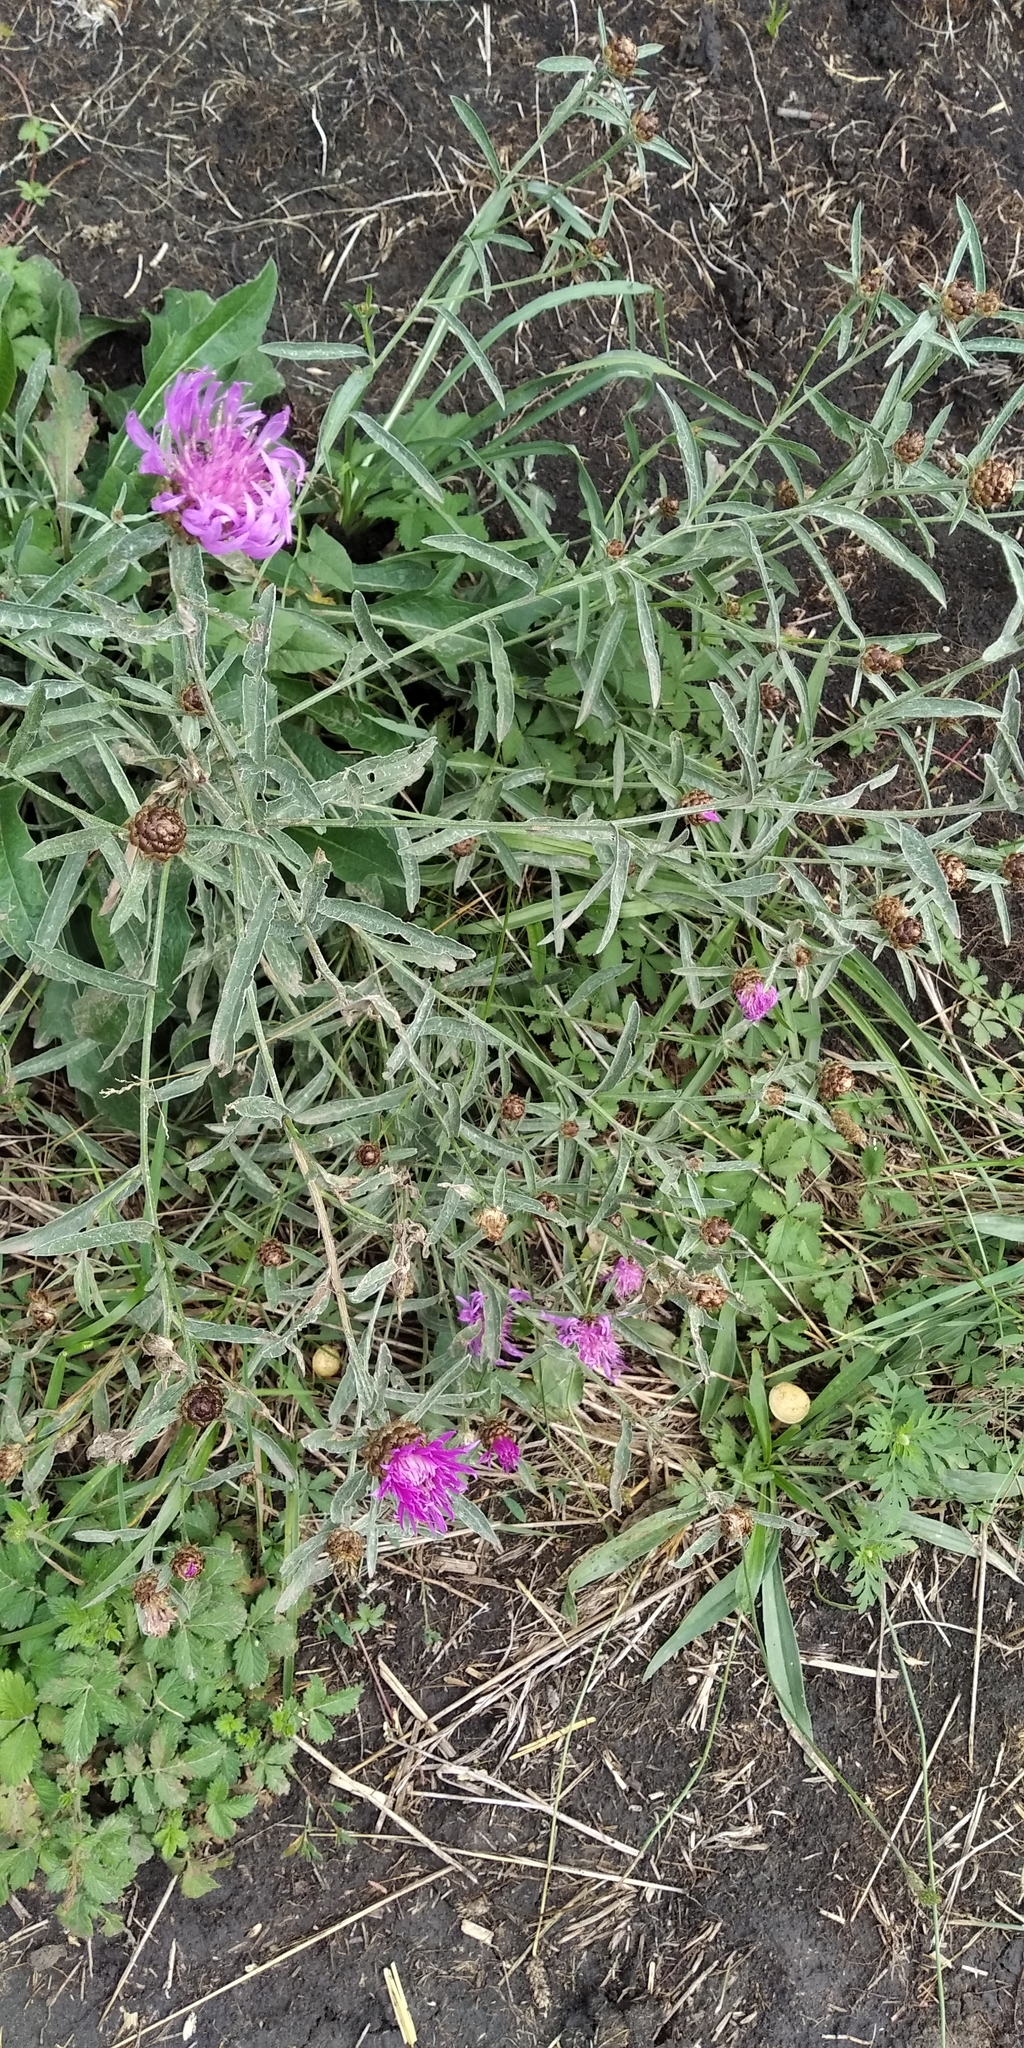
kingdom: Plantae
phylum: Tracheophyta
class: Magnoliopsida
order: Asterales
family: Asteraceae
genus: Centaurea
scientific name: Centaurea jacea
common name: Brown knapweed
